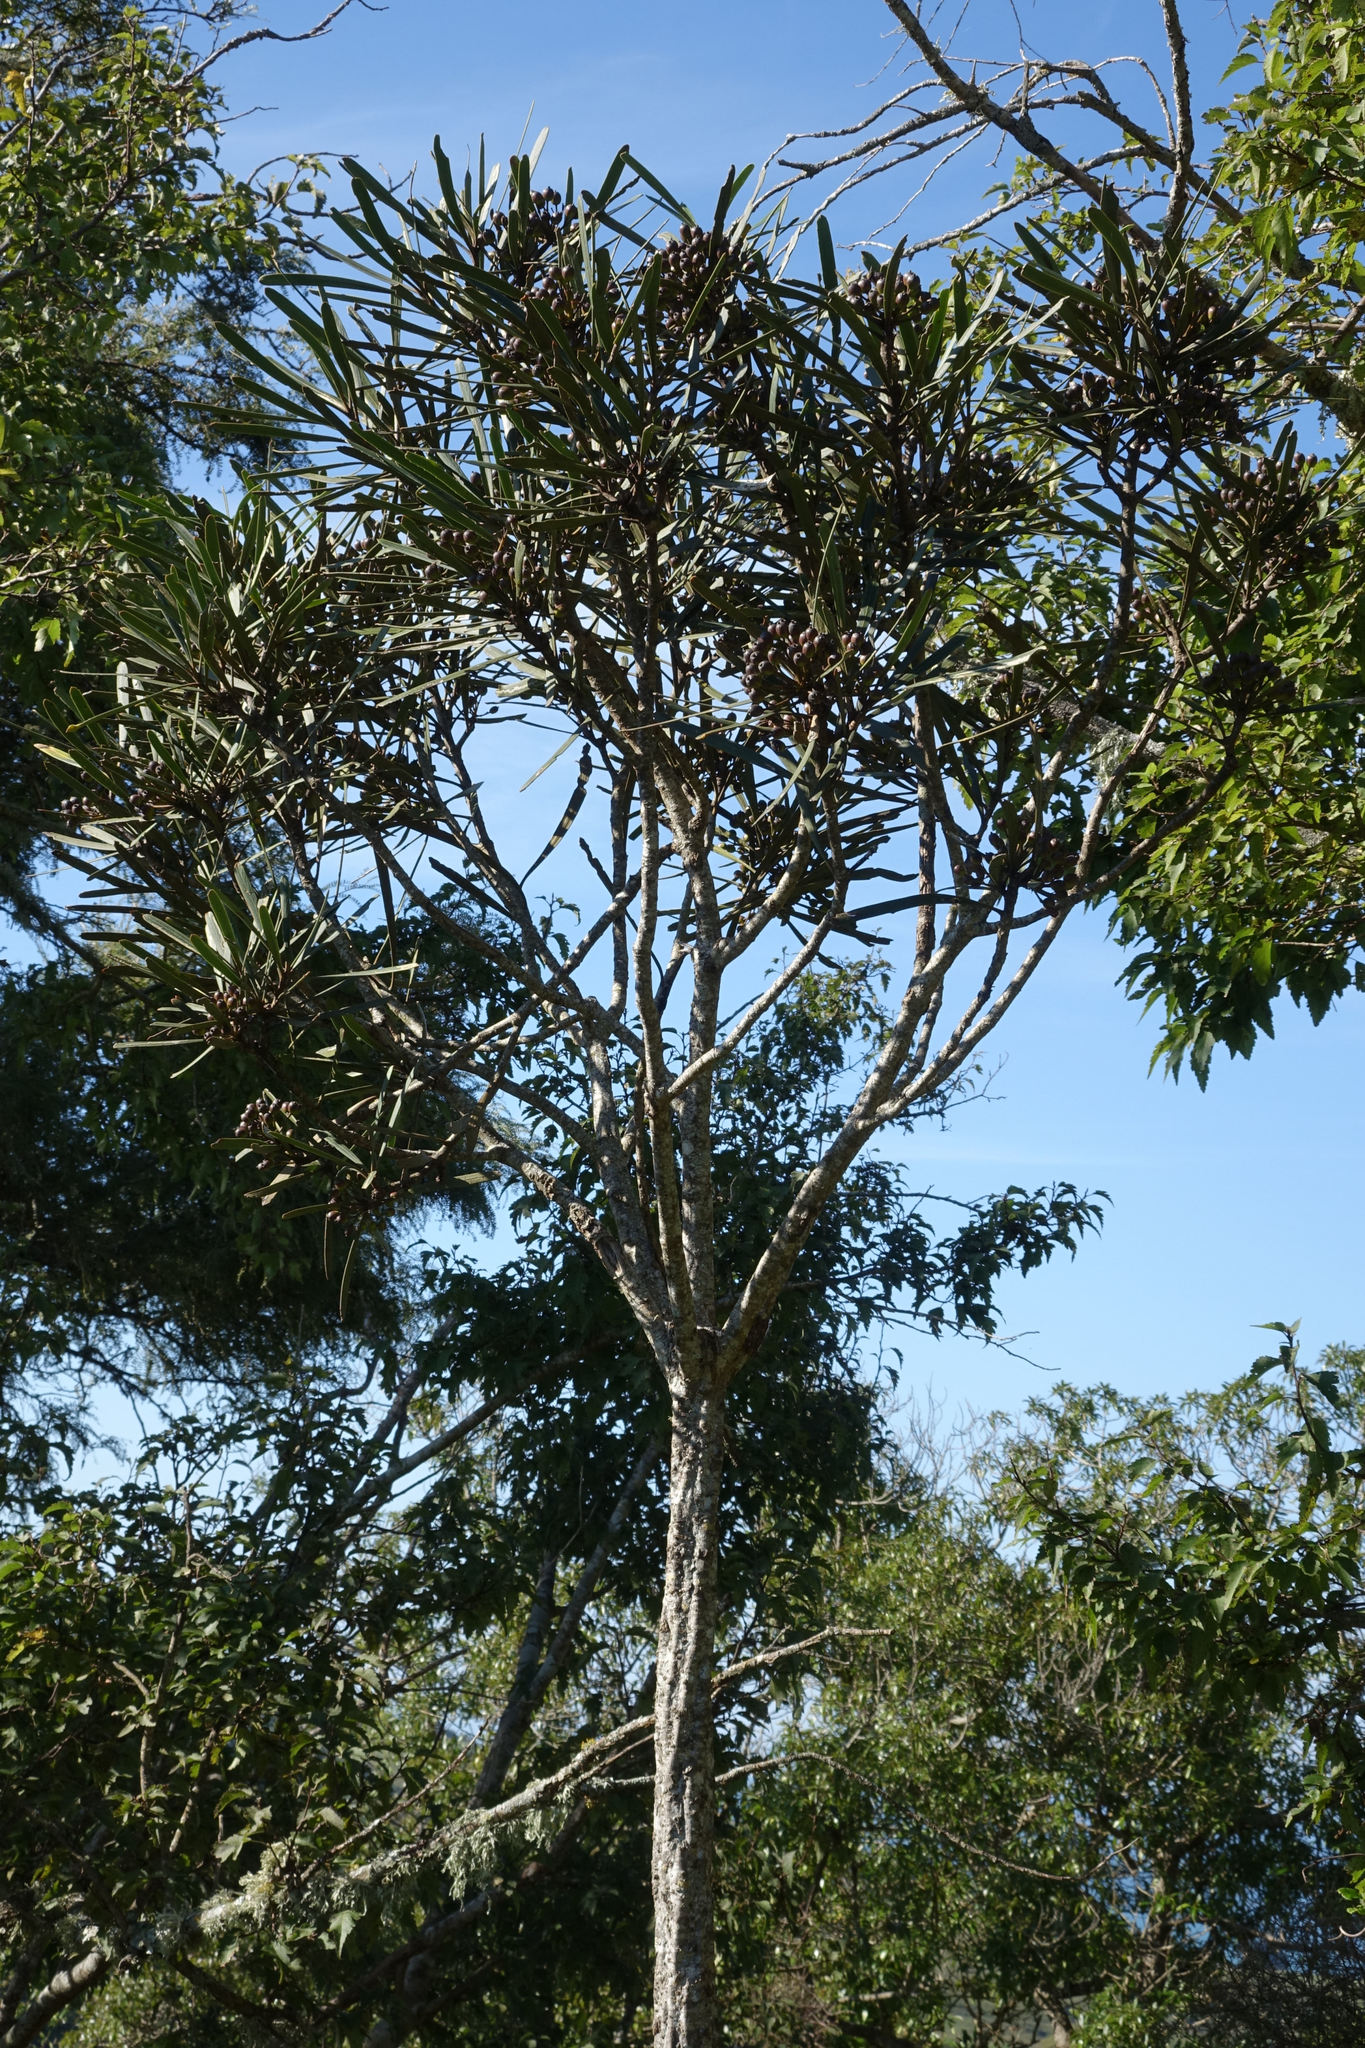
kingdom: Plantae
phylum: Tracheophyta
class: Magnoliopsida
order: Apiales
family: Araliaceae
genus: Pseudopanax
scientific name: Pseudopanax ferox
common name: Fierce lancewood
